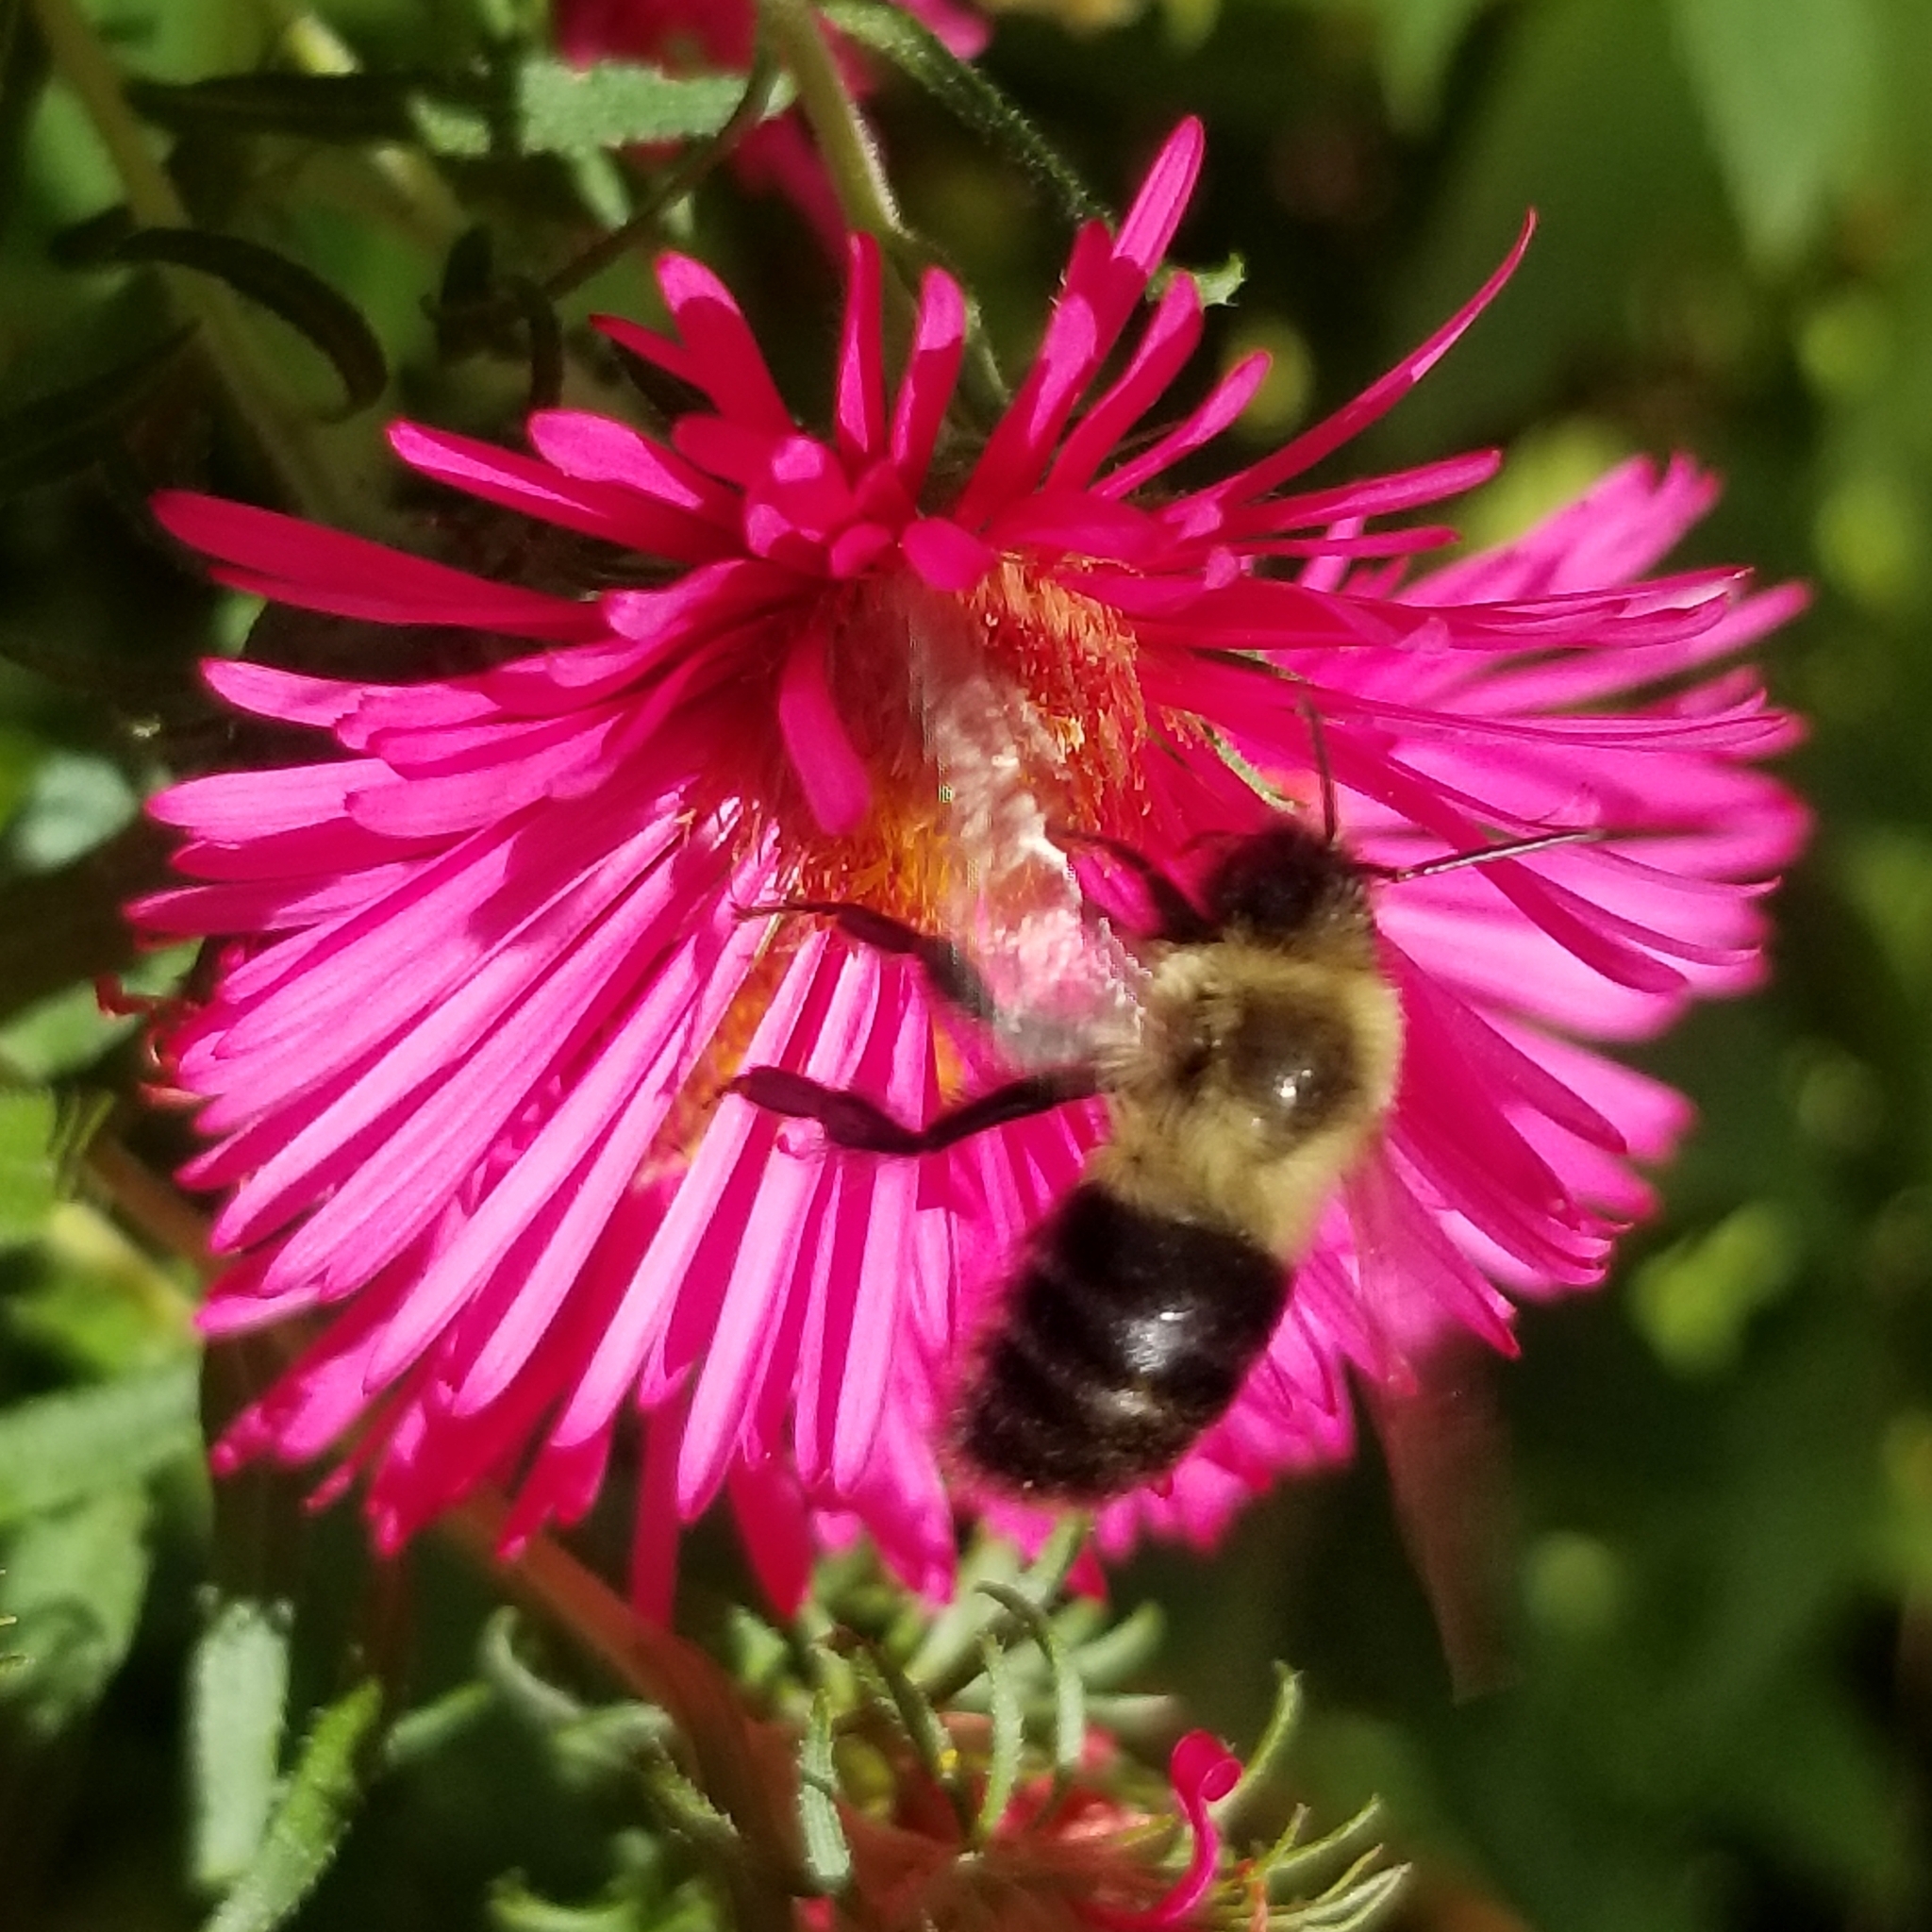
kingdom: Animalia
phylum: Arthropoda
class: Insecta
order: Hymenoptera
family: Apidae
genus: Bombus
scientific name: Bombus impatiens
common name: Common eastern bumble bee
